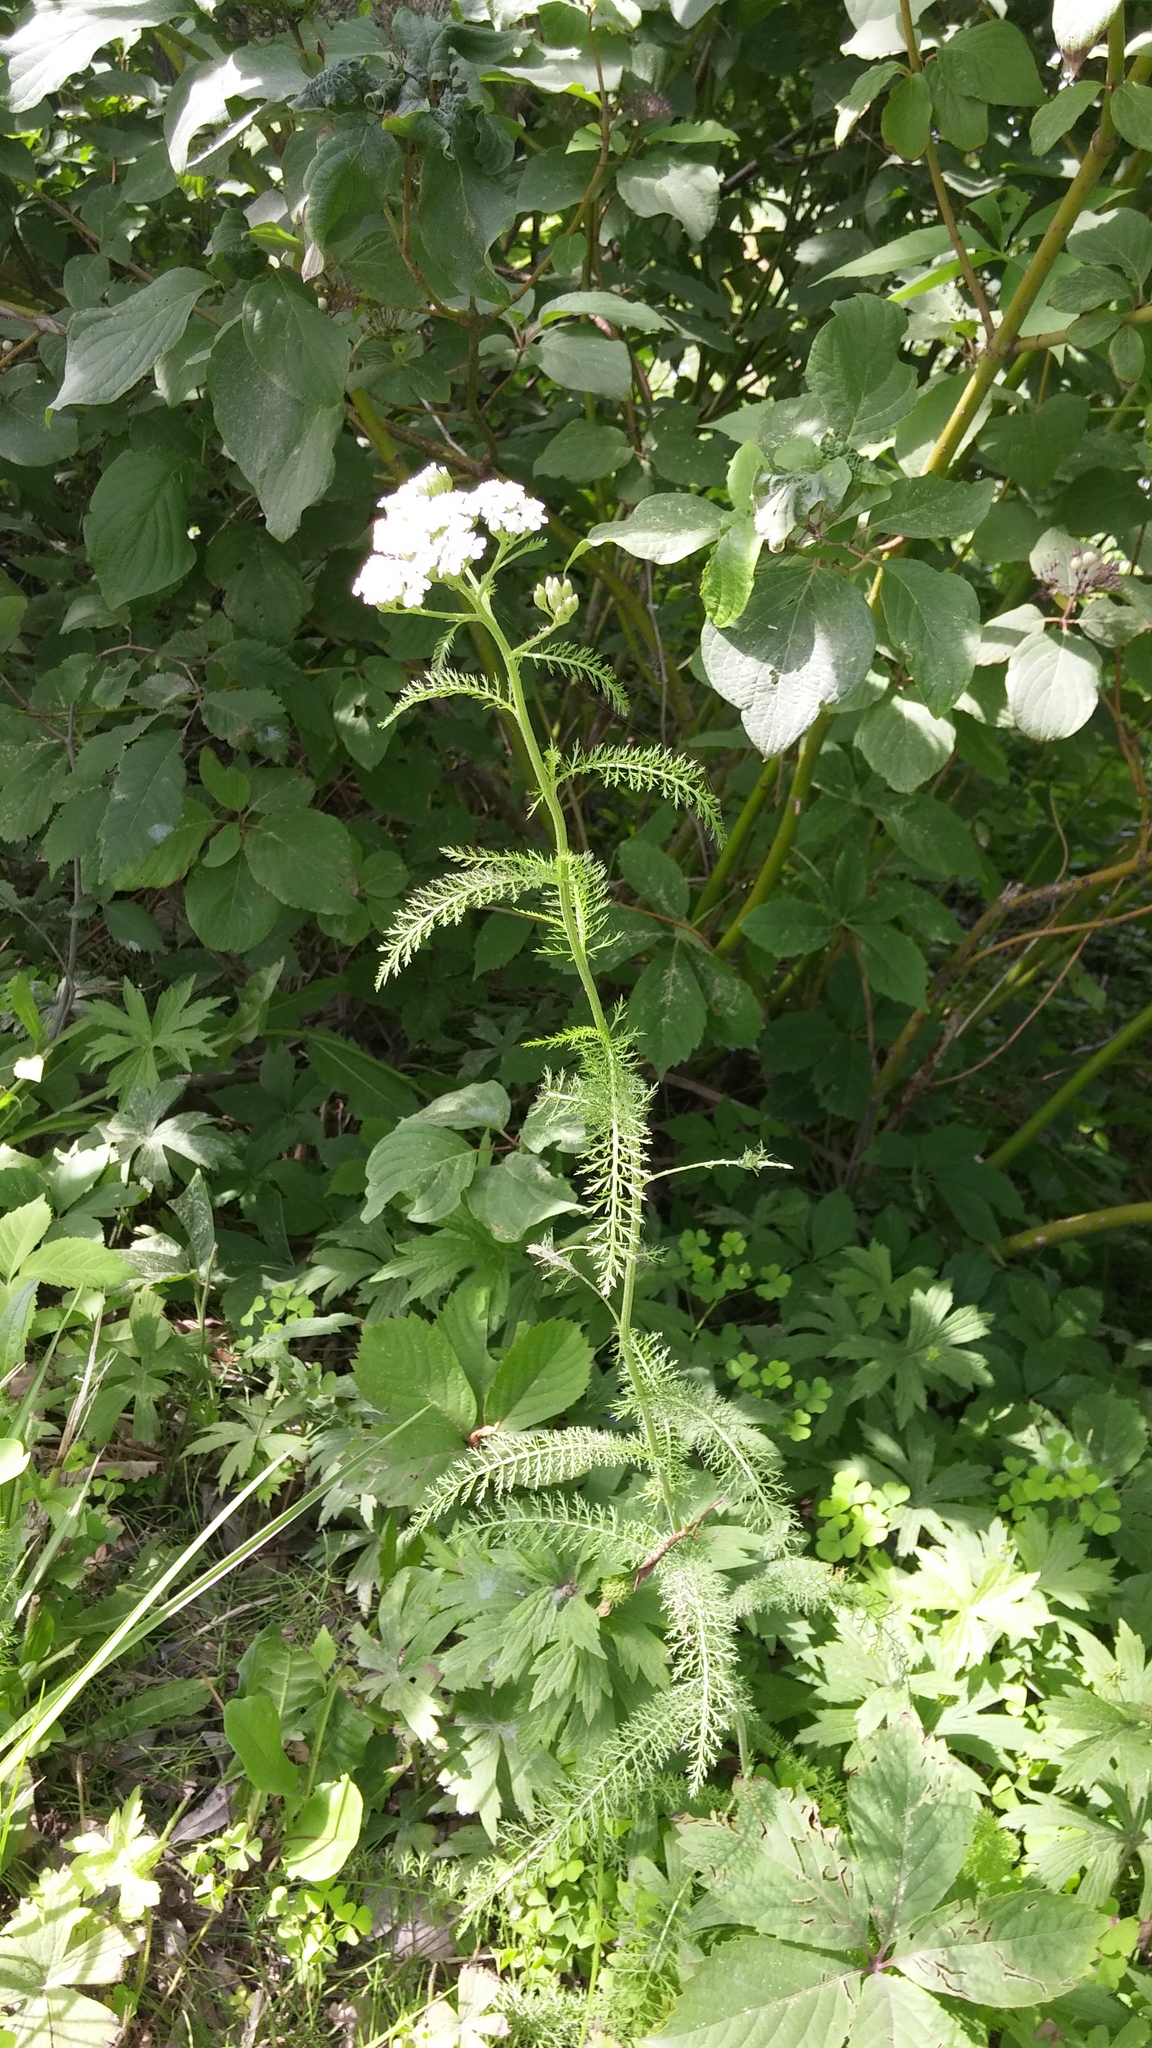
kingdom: Plantae
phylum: Tracheophyta
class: Magnoliopsida
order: Asterales
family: Asteraceae
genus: Achillea
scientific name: Achillea millefolium
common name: Yarrow
